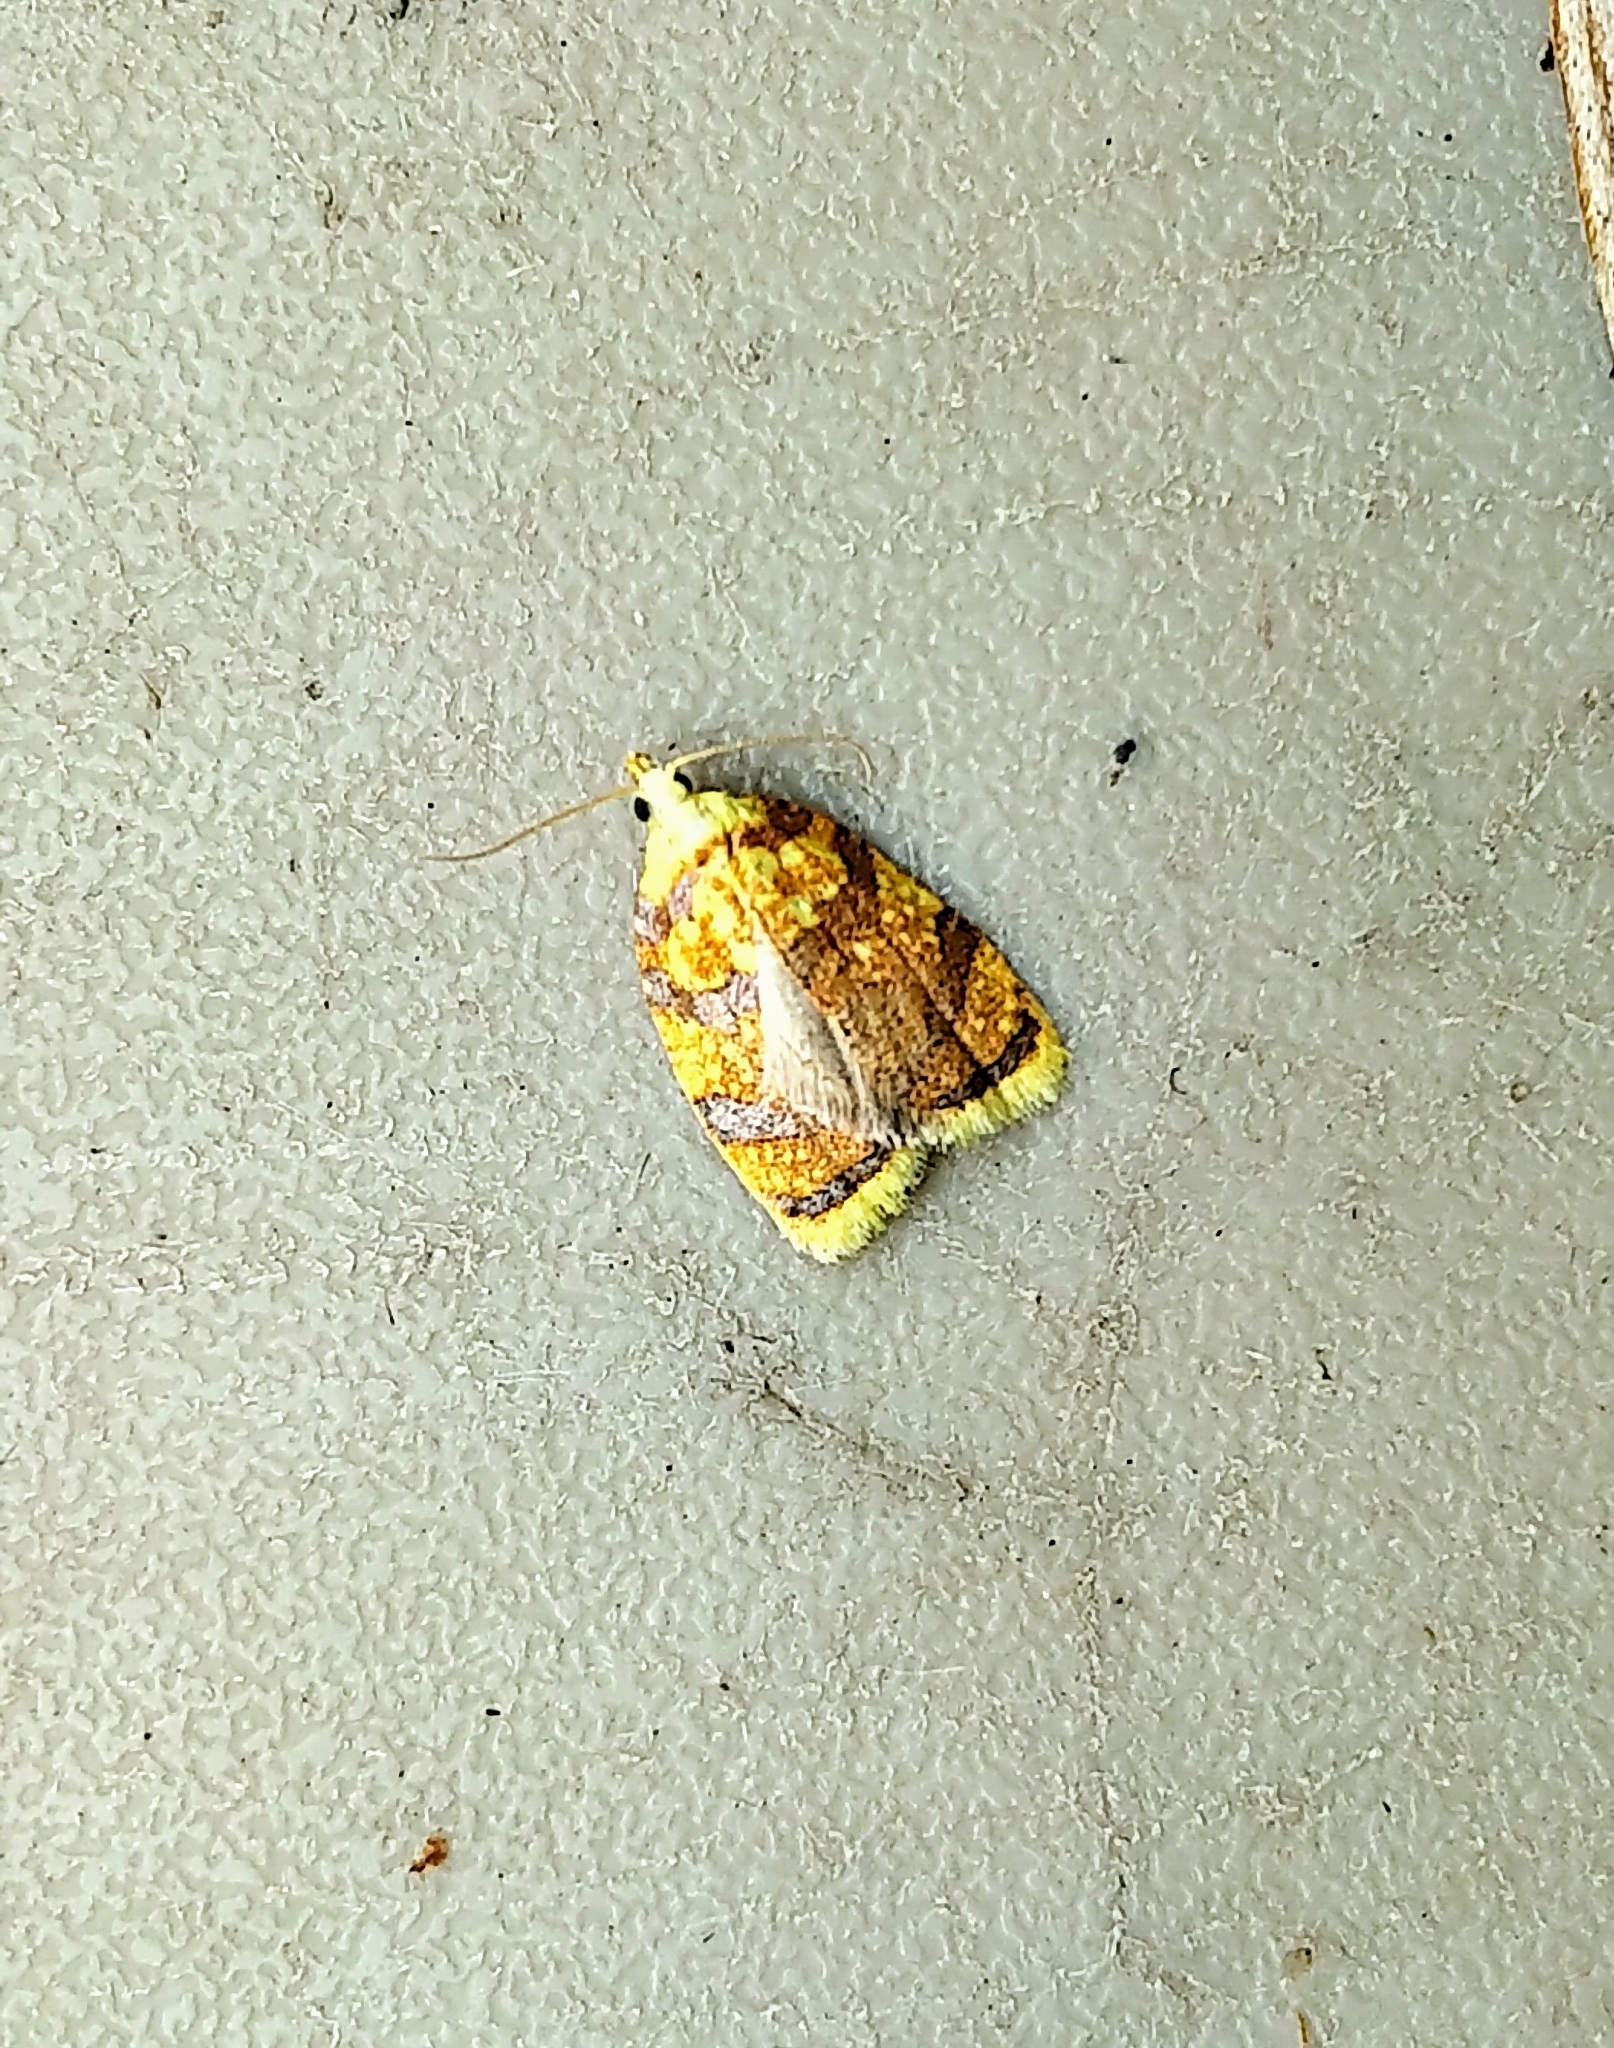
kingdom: Animalia
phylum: Arthropoda
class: Insecta
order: Lepidoptera
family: Tortricidae
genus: Acleris
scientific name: Acleris albicomana
